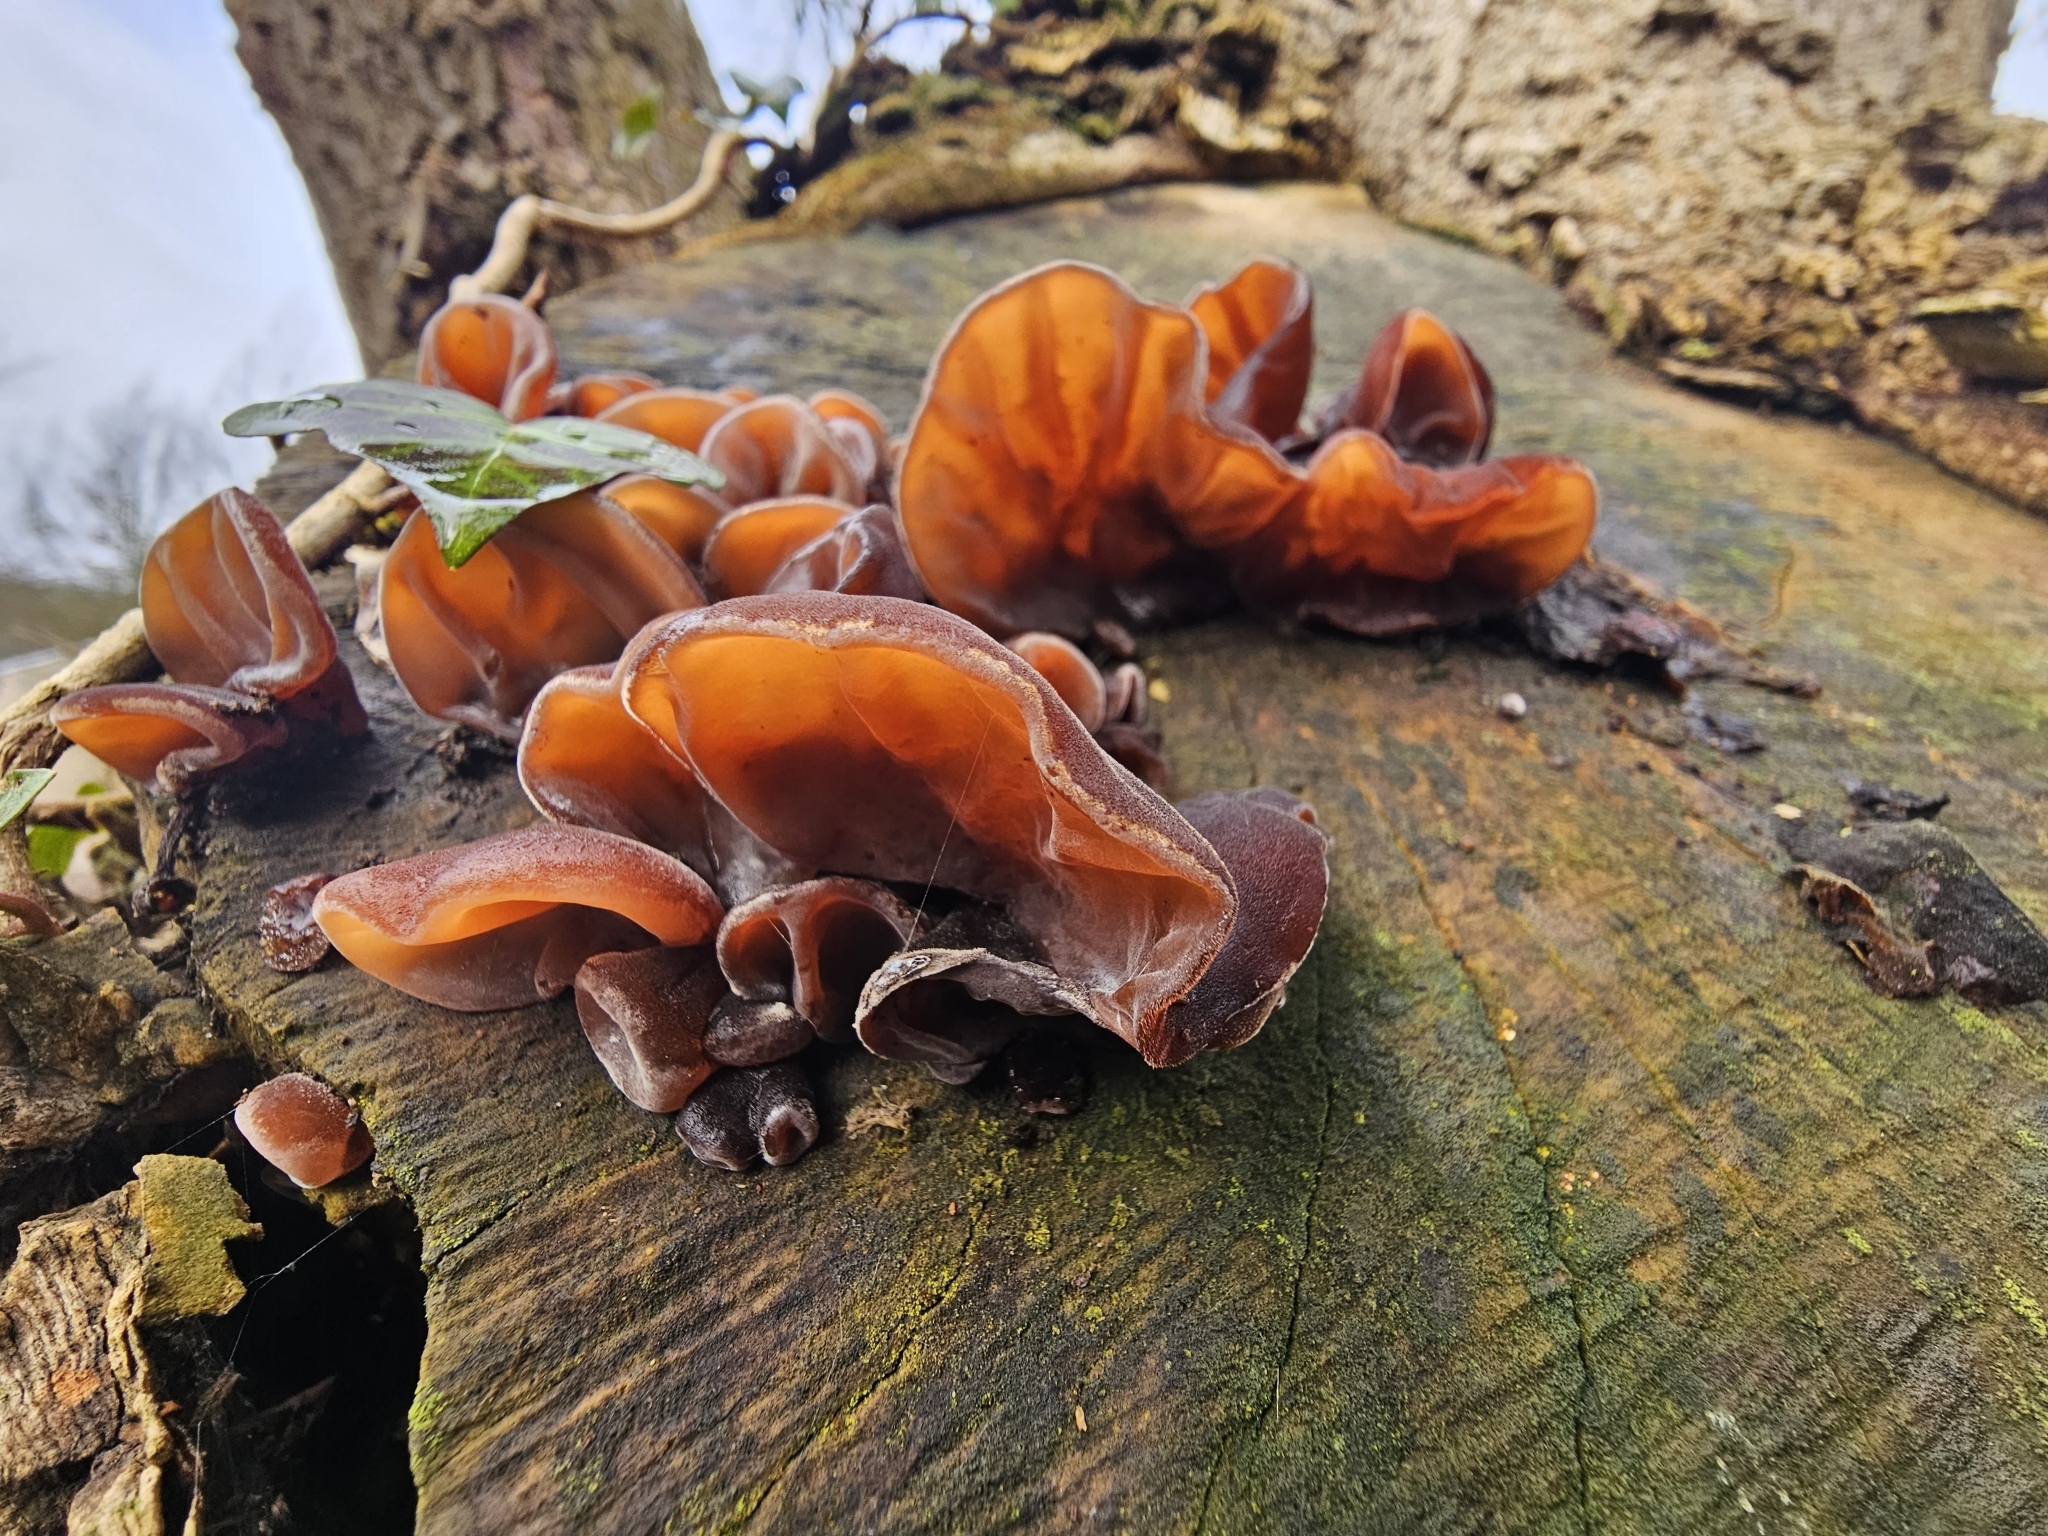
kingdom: Fungi
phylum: Basidiomycota
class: Agaricomycetes
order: Auriculariales
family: Auriculariaceae
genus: Auricularia
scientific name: Auricularia auricula-judae
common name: Jelly ear
